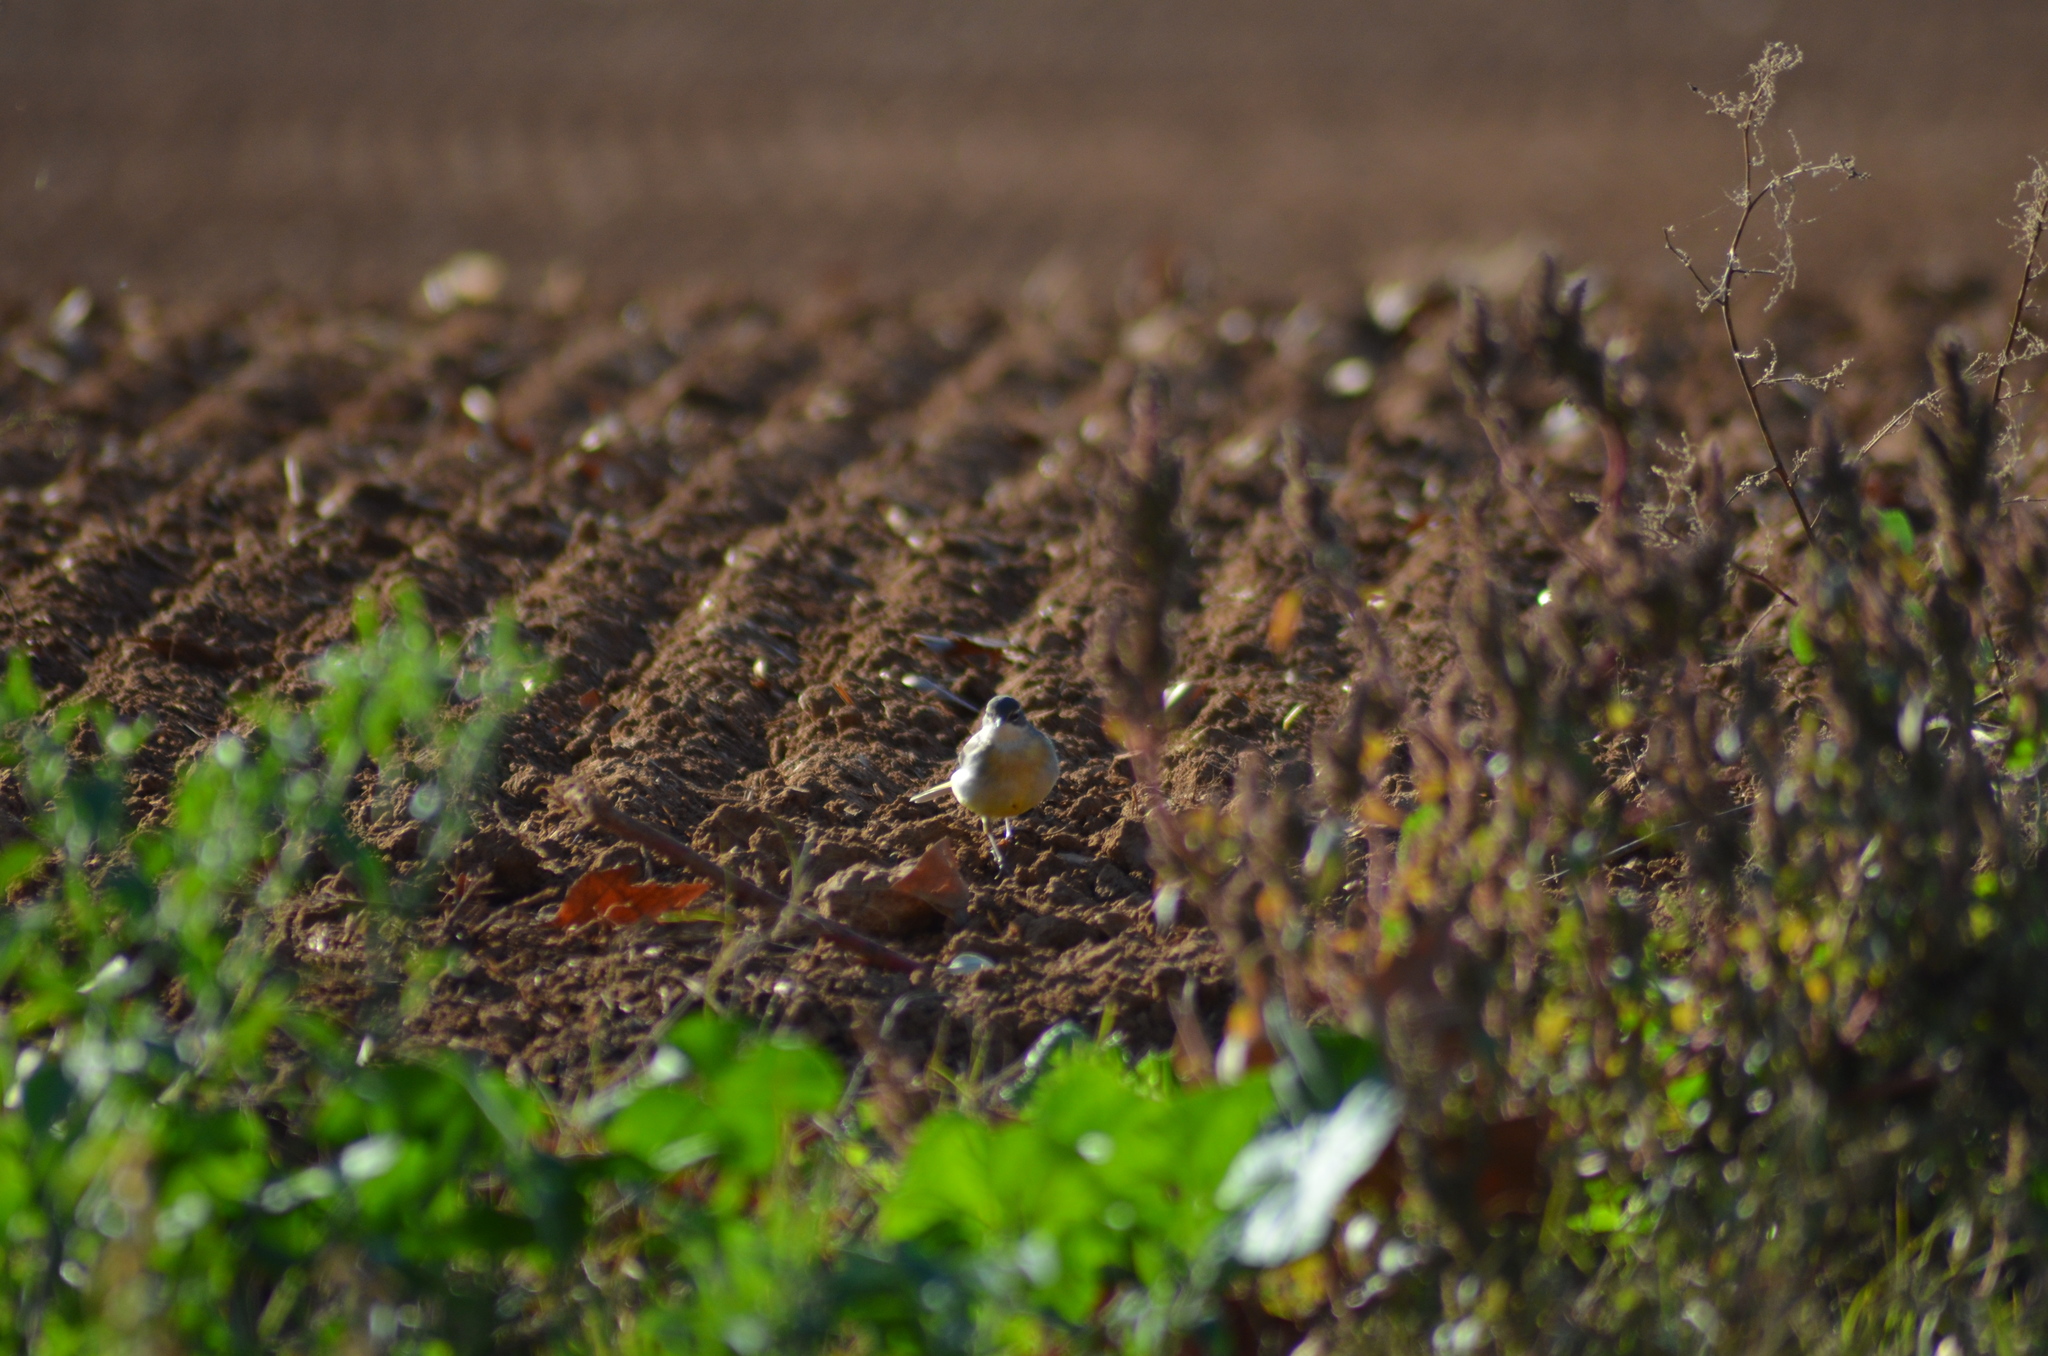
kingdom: Animalia
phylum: Chordata
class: Aves
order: Passeriformes
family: Motacillidae
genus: Motacilla
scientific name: Motacilla cinerea
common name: Grey wagtail
